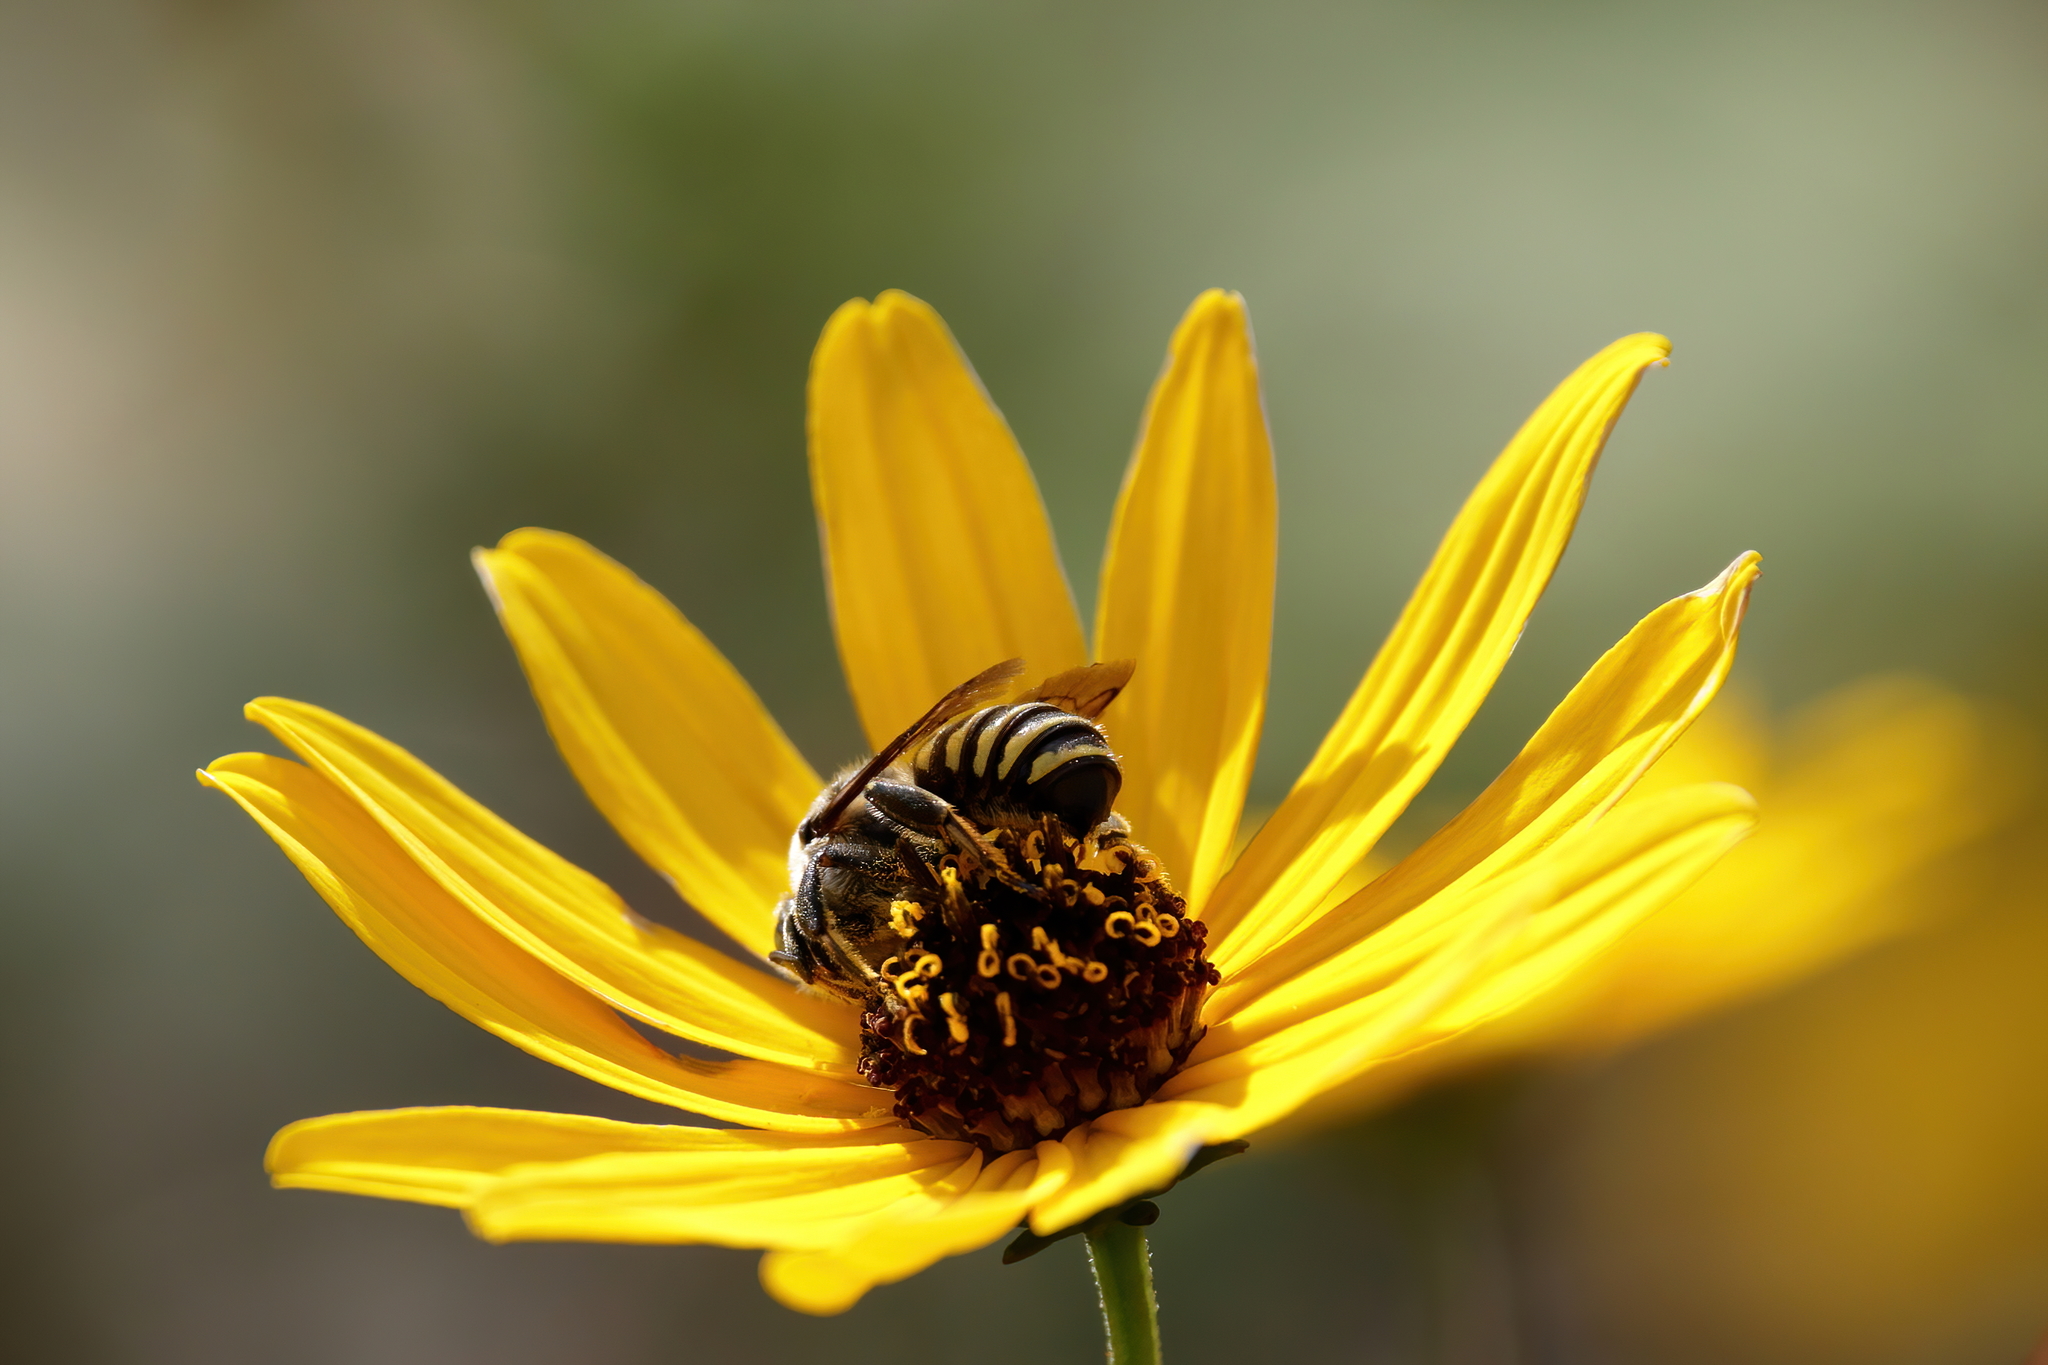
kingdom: Animalia
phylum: Arthropoda
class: Insecta
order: Hymenoptera
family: Megachilidae
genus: Trachusa
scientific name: Trachusa crassipes
